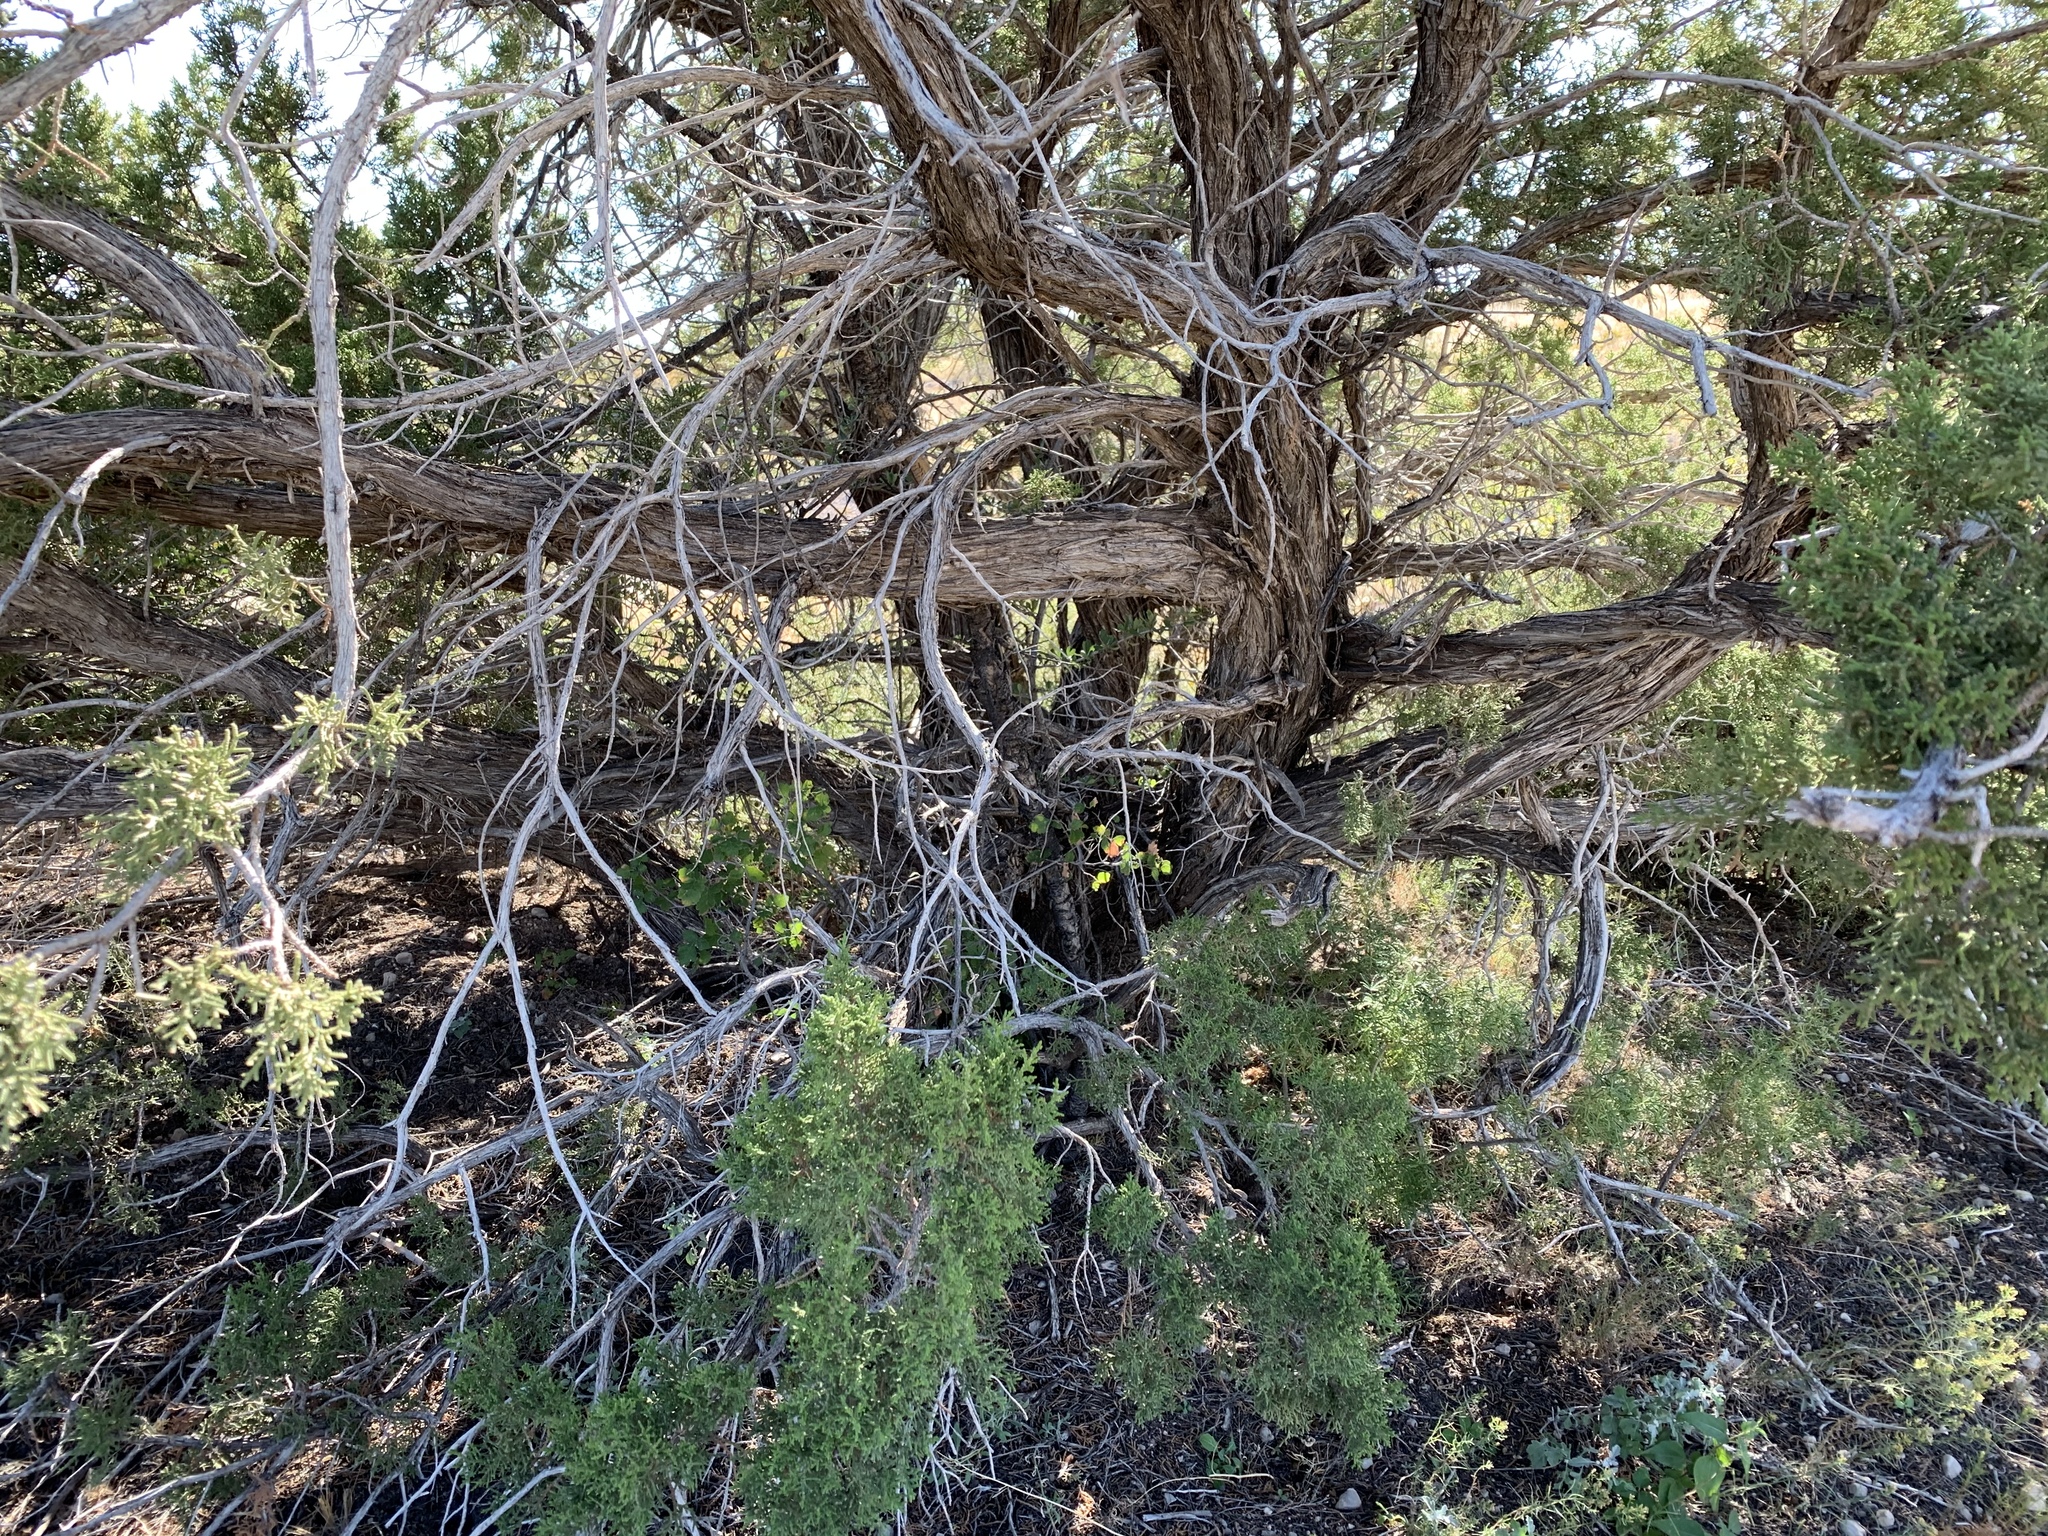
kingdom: Plantae
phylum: Tracheophyta
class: Pinopsida
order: Pinales
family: Cupressaceae
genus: Juniperus
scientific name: Juniperus monosperma
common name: One-seed juniper
